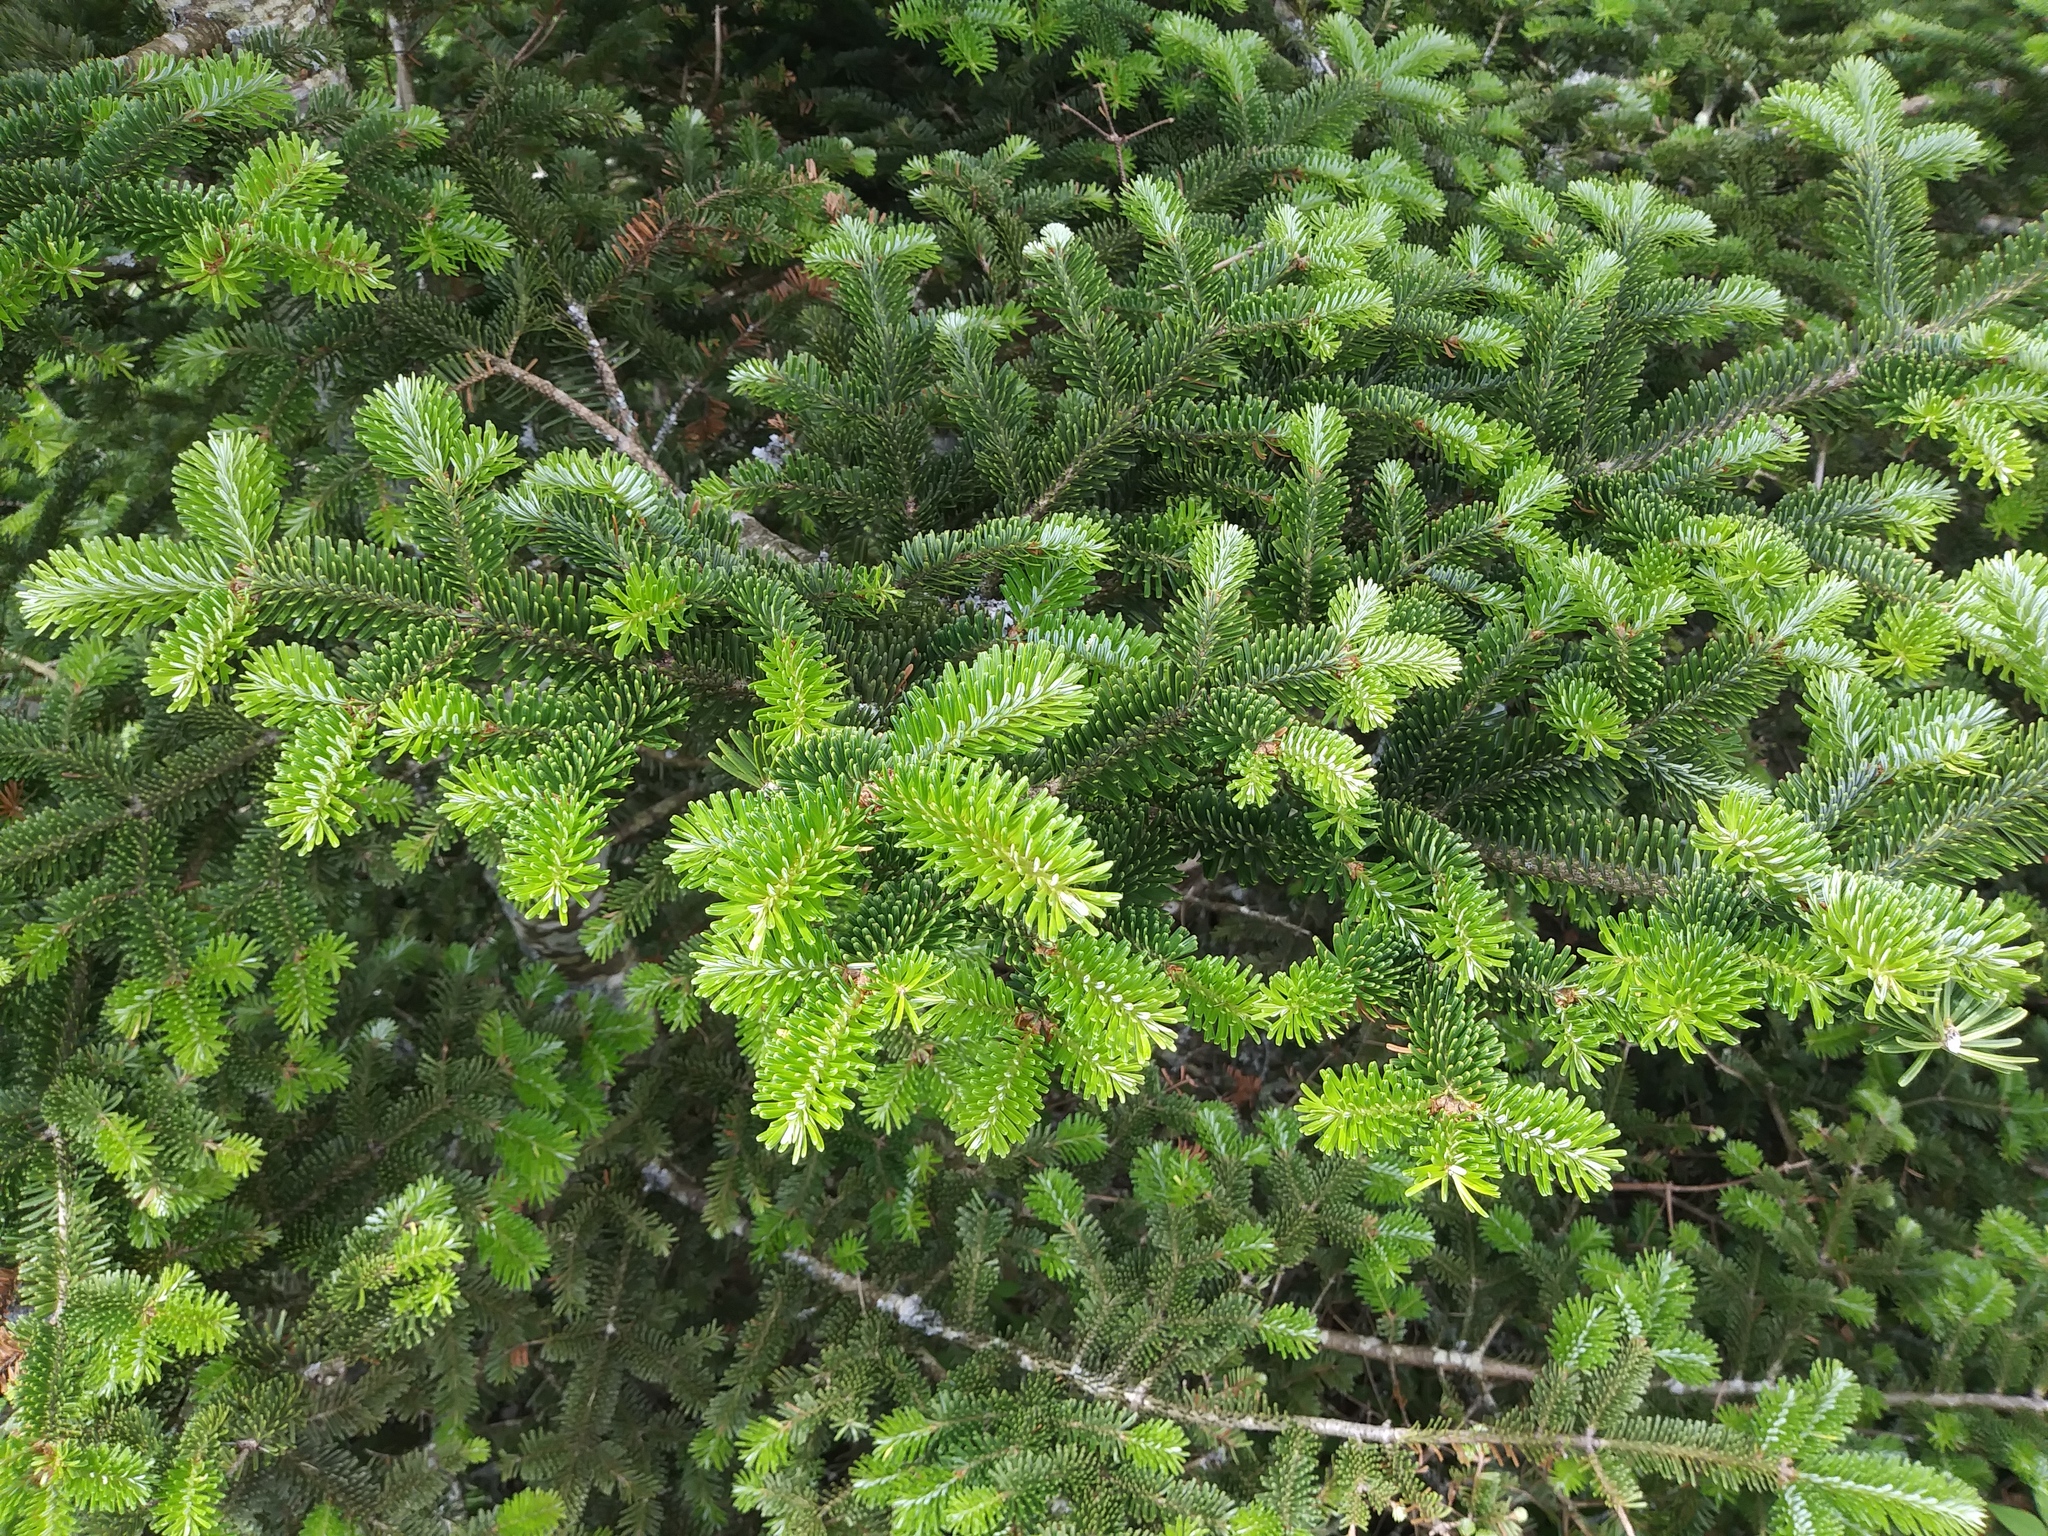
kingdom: Plantae
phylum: Tracheophyta
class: Pinopsida
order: Pinales
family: Pinaceae
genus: Abies
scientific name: Abies fraseri
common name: Fraser fir
